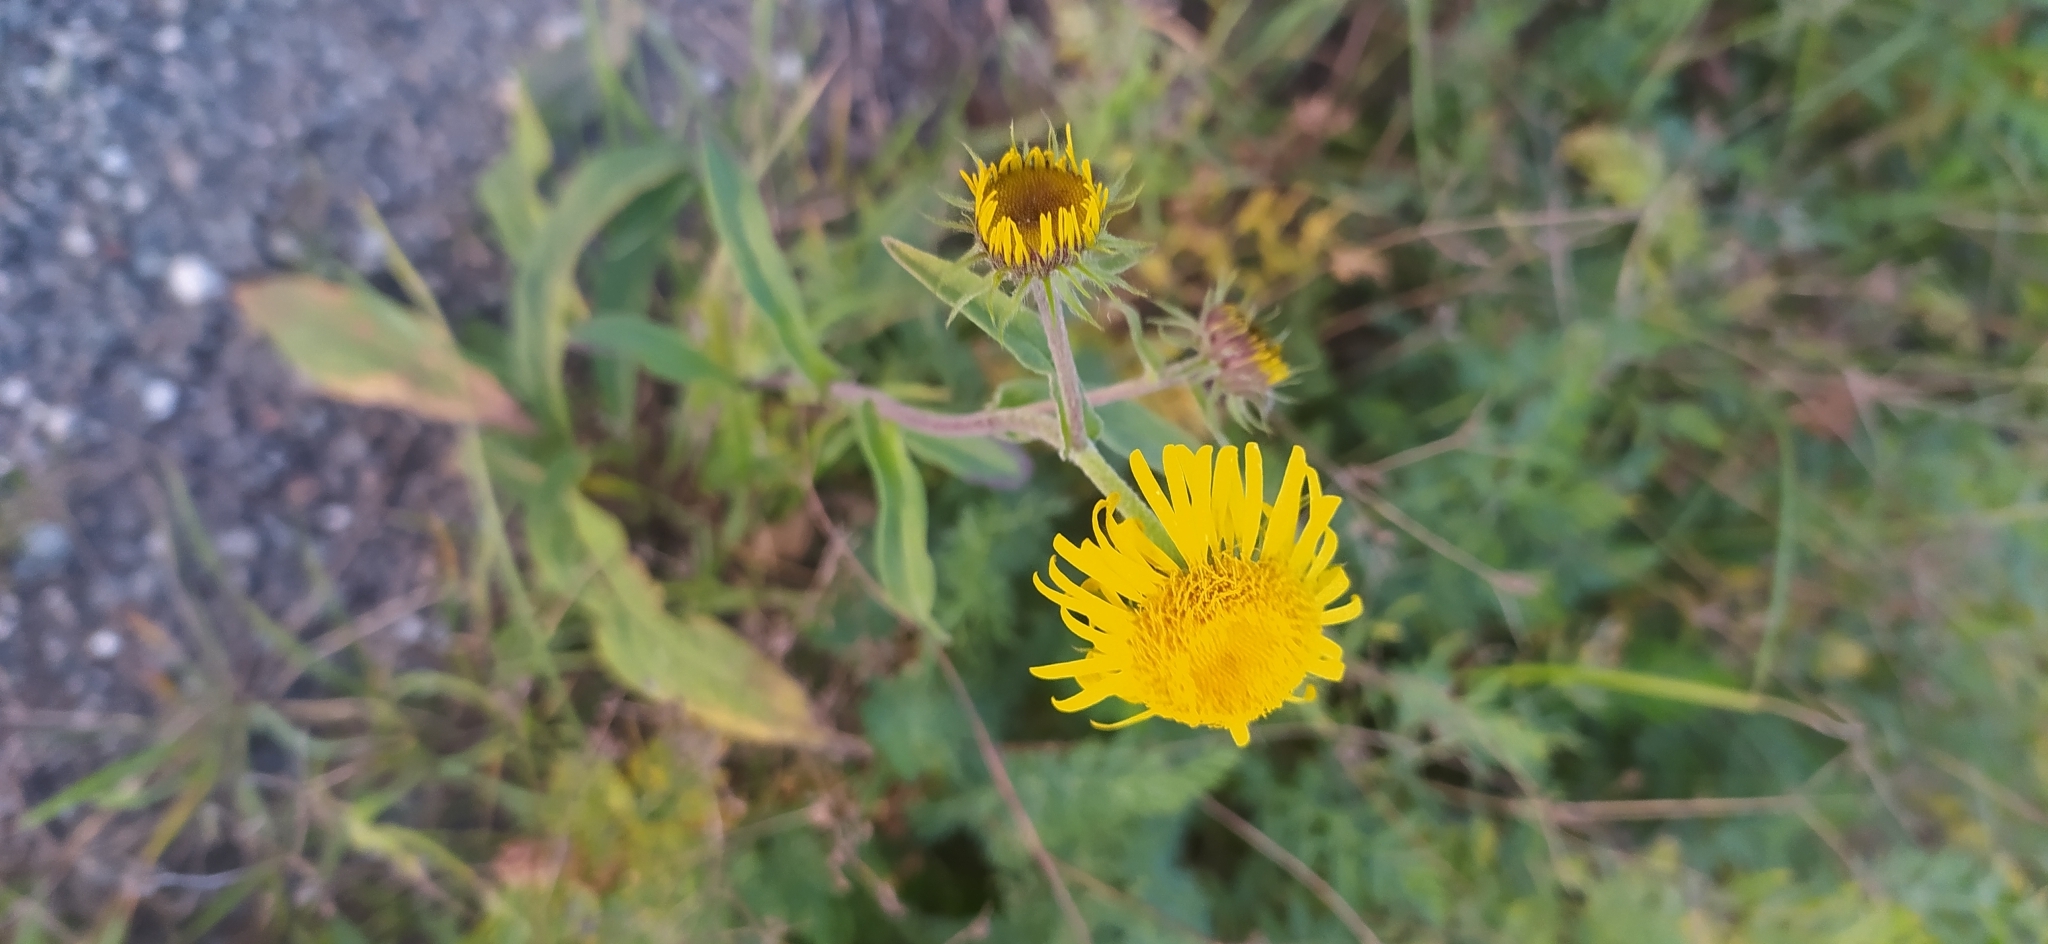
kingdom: Plantae
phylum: Tracheophyta
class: Magnoliopsida
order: Asterales
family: Asteraceae
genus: Pentanema
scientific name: Pentanema britannicum
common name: British elecampane
